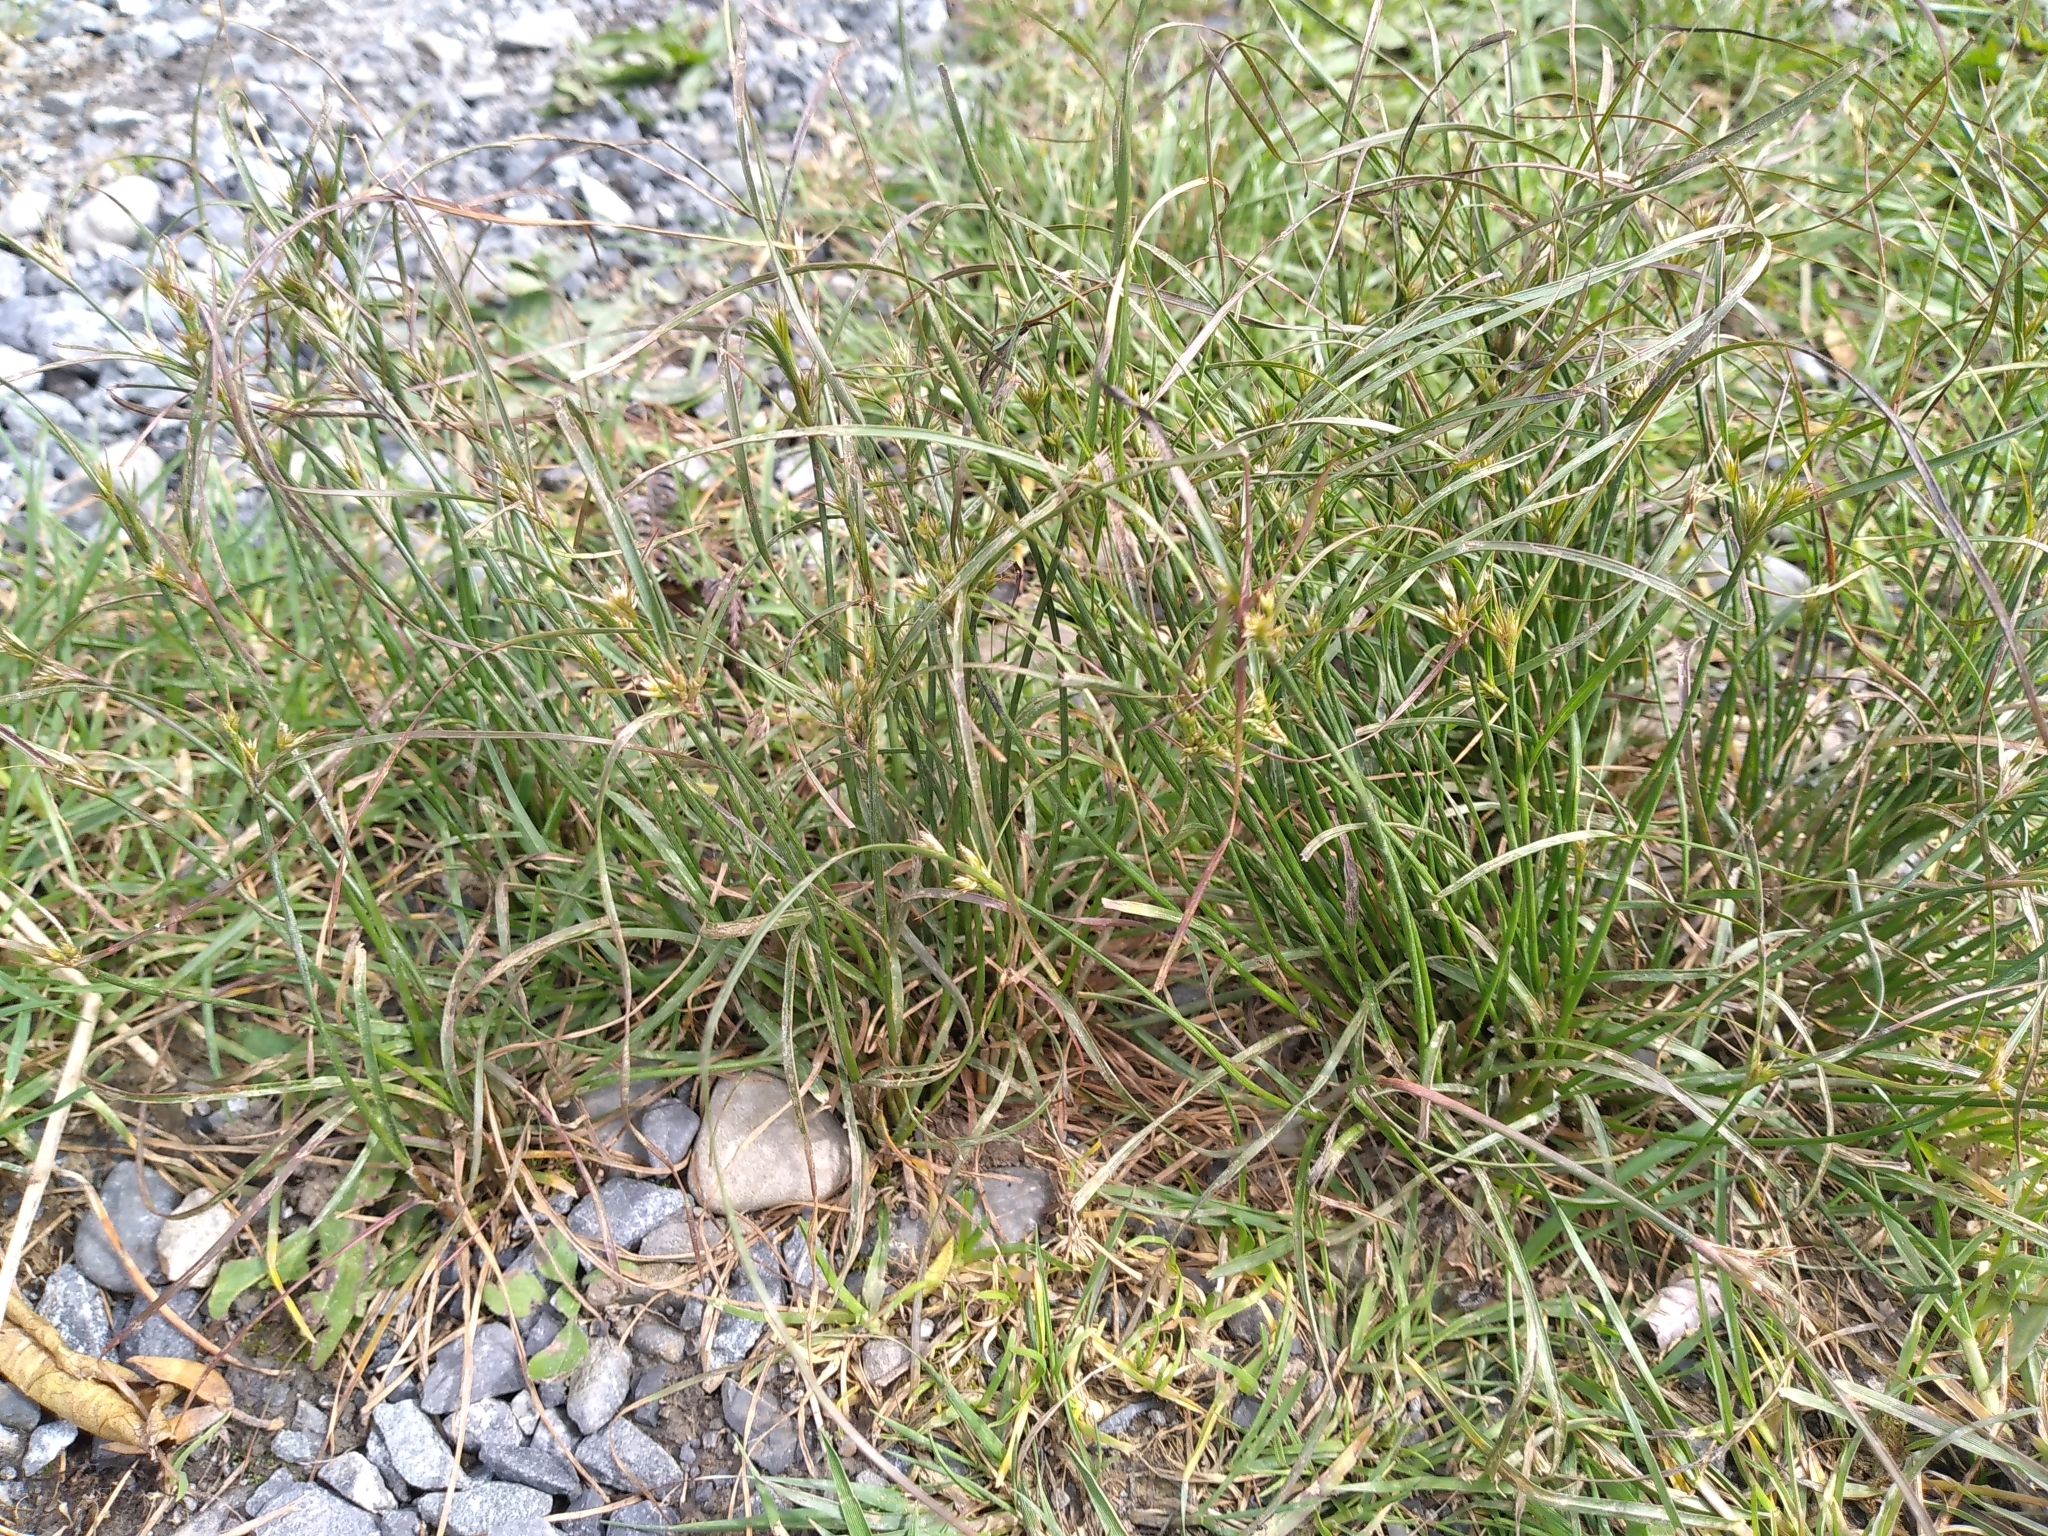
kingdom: Plantae
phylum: Tracheophyta
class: Liliopsida
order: Poales
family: Juncaceae
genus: Juncus
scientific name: Juncus tenuis
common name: Slender rush
